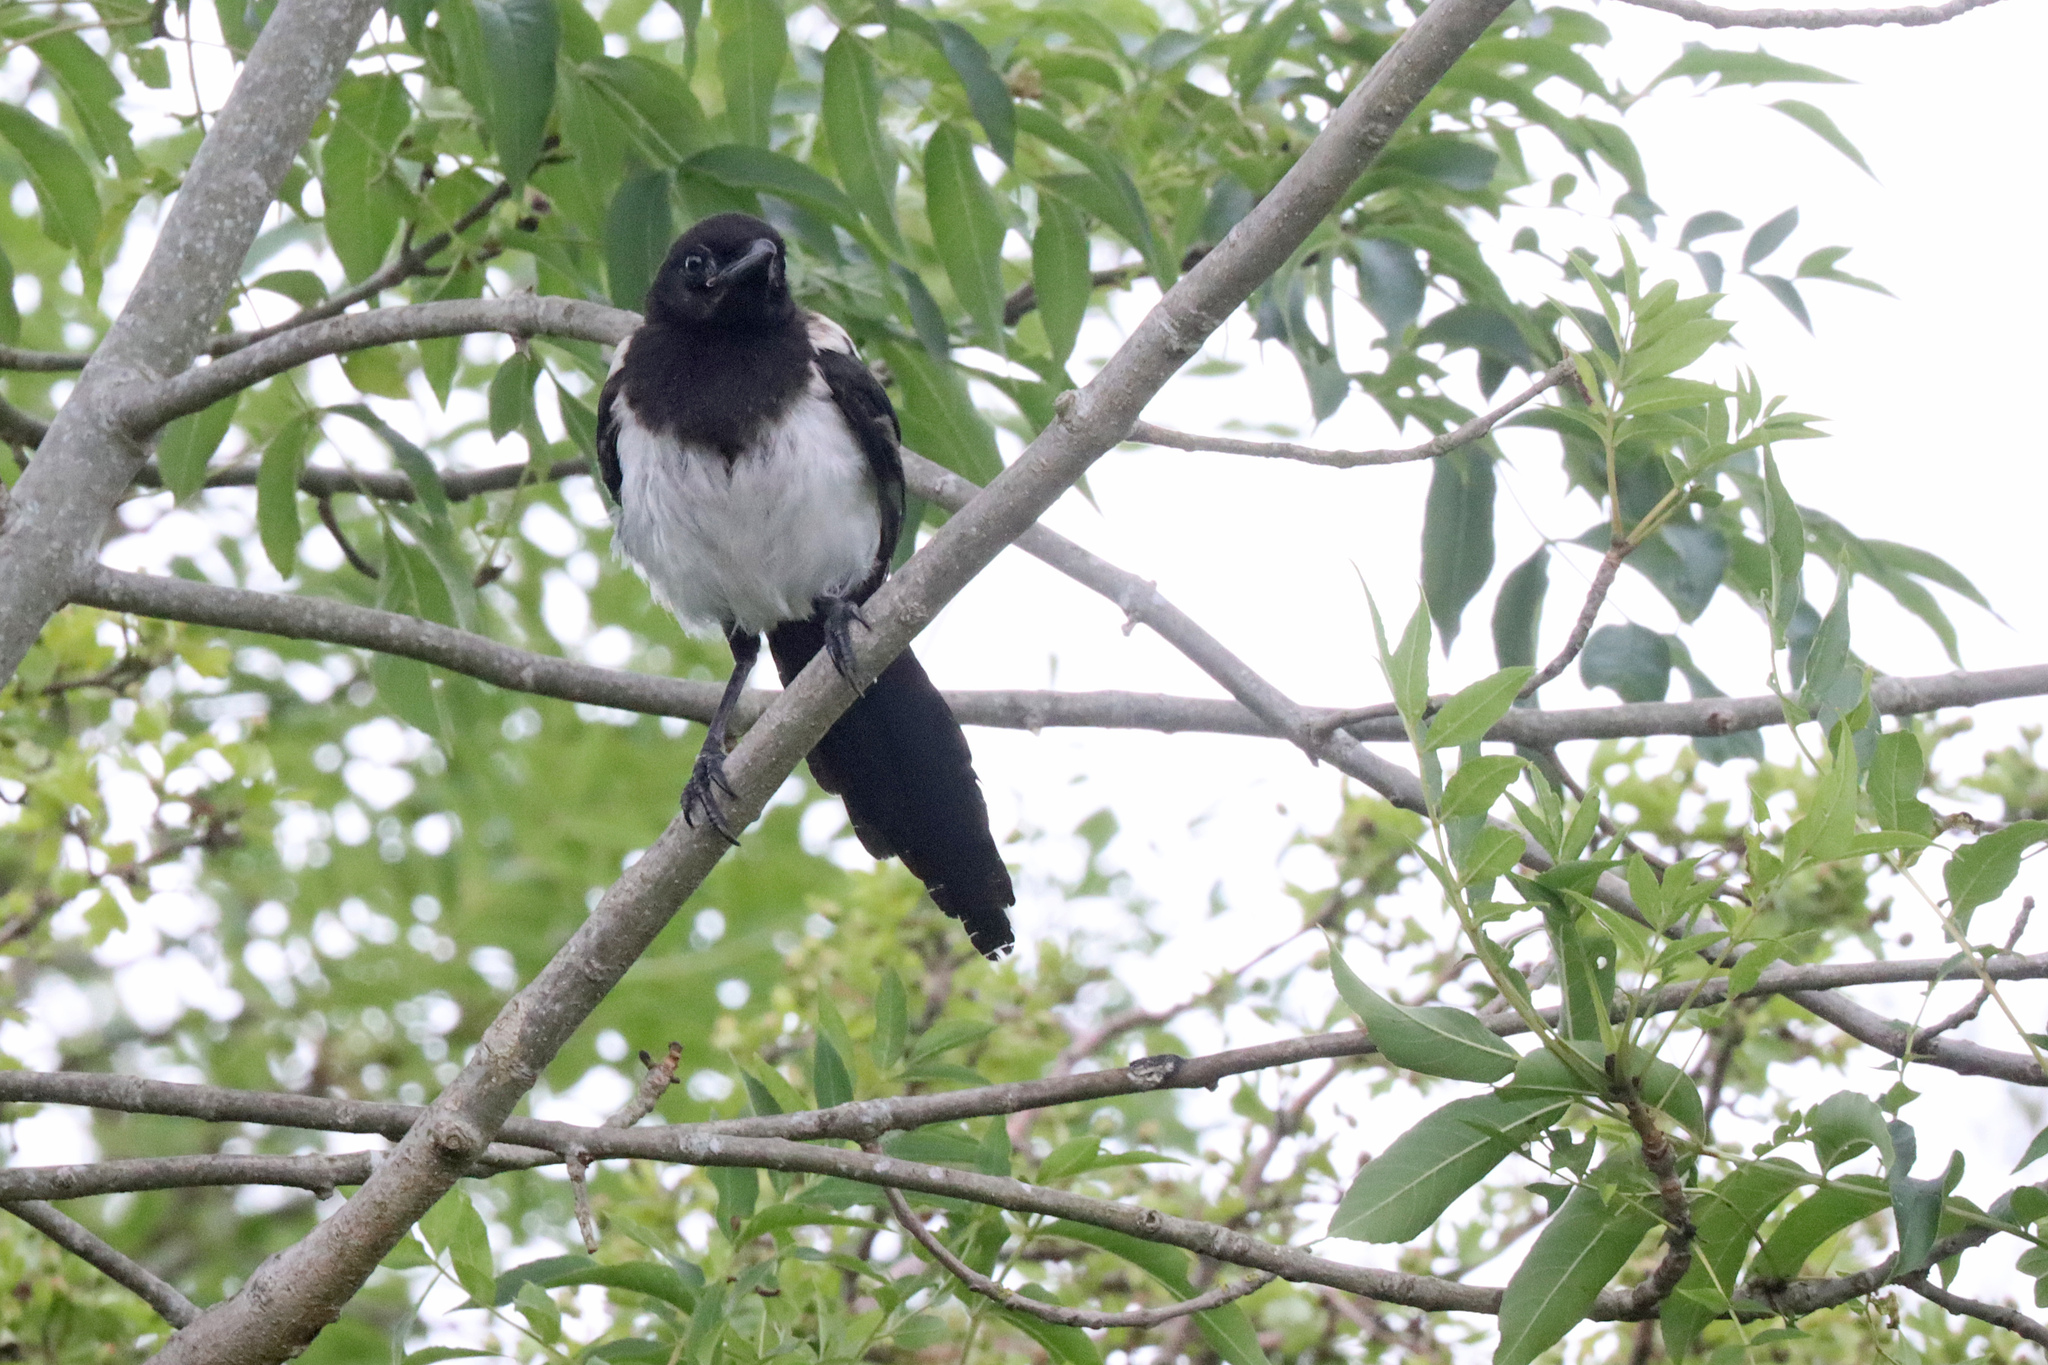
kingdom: Animalia
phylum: Chordata
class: Aves
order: Passeriformes
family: Corvidae
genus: Pica
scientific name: Pica pica
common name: Eurasian magpie
